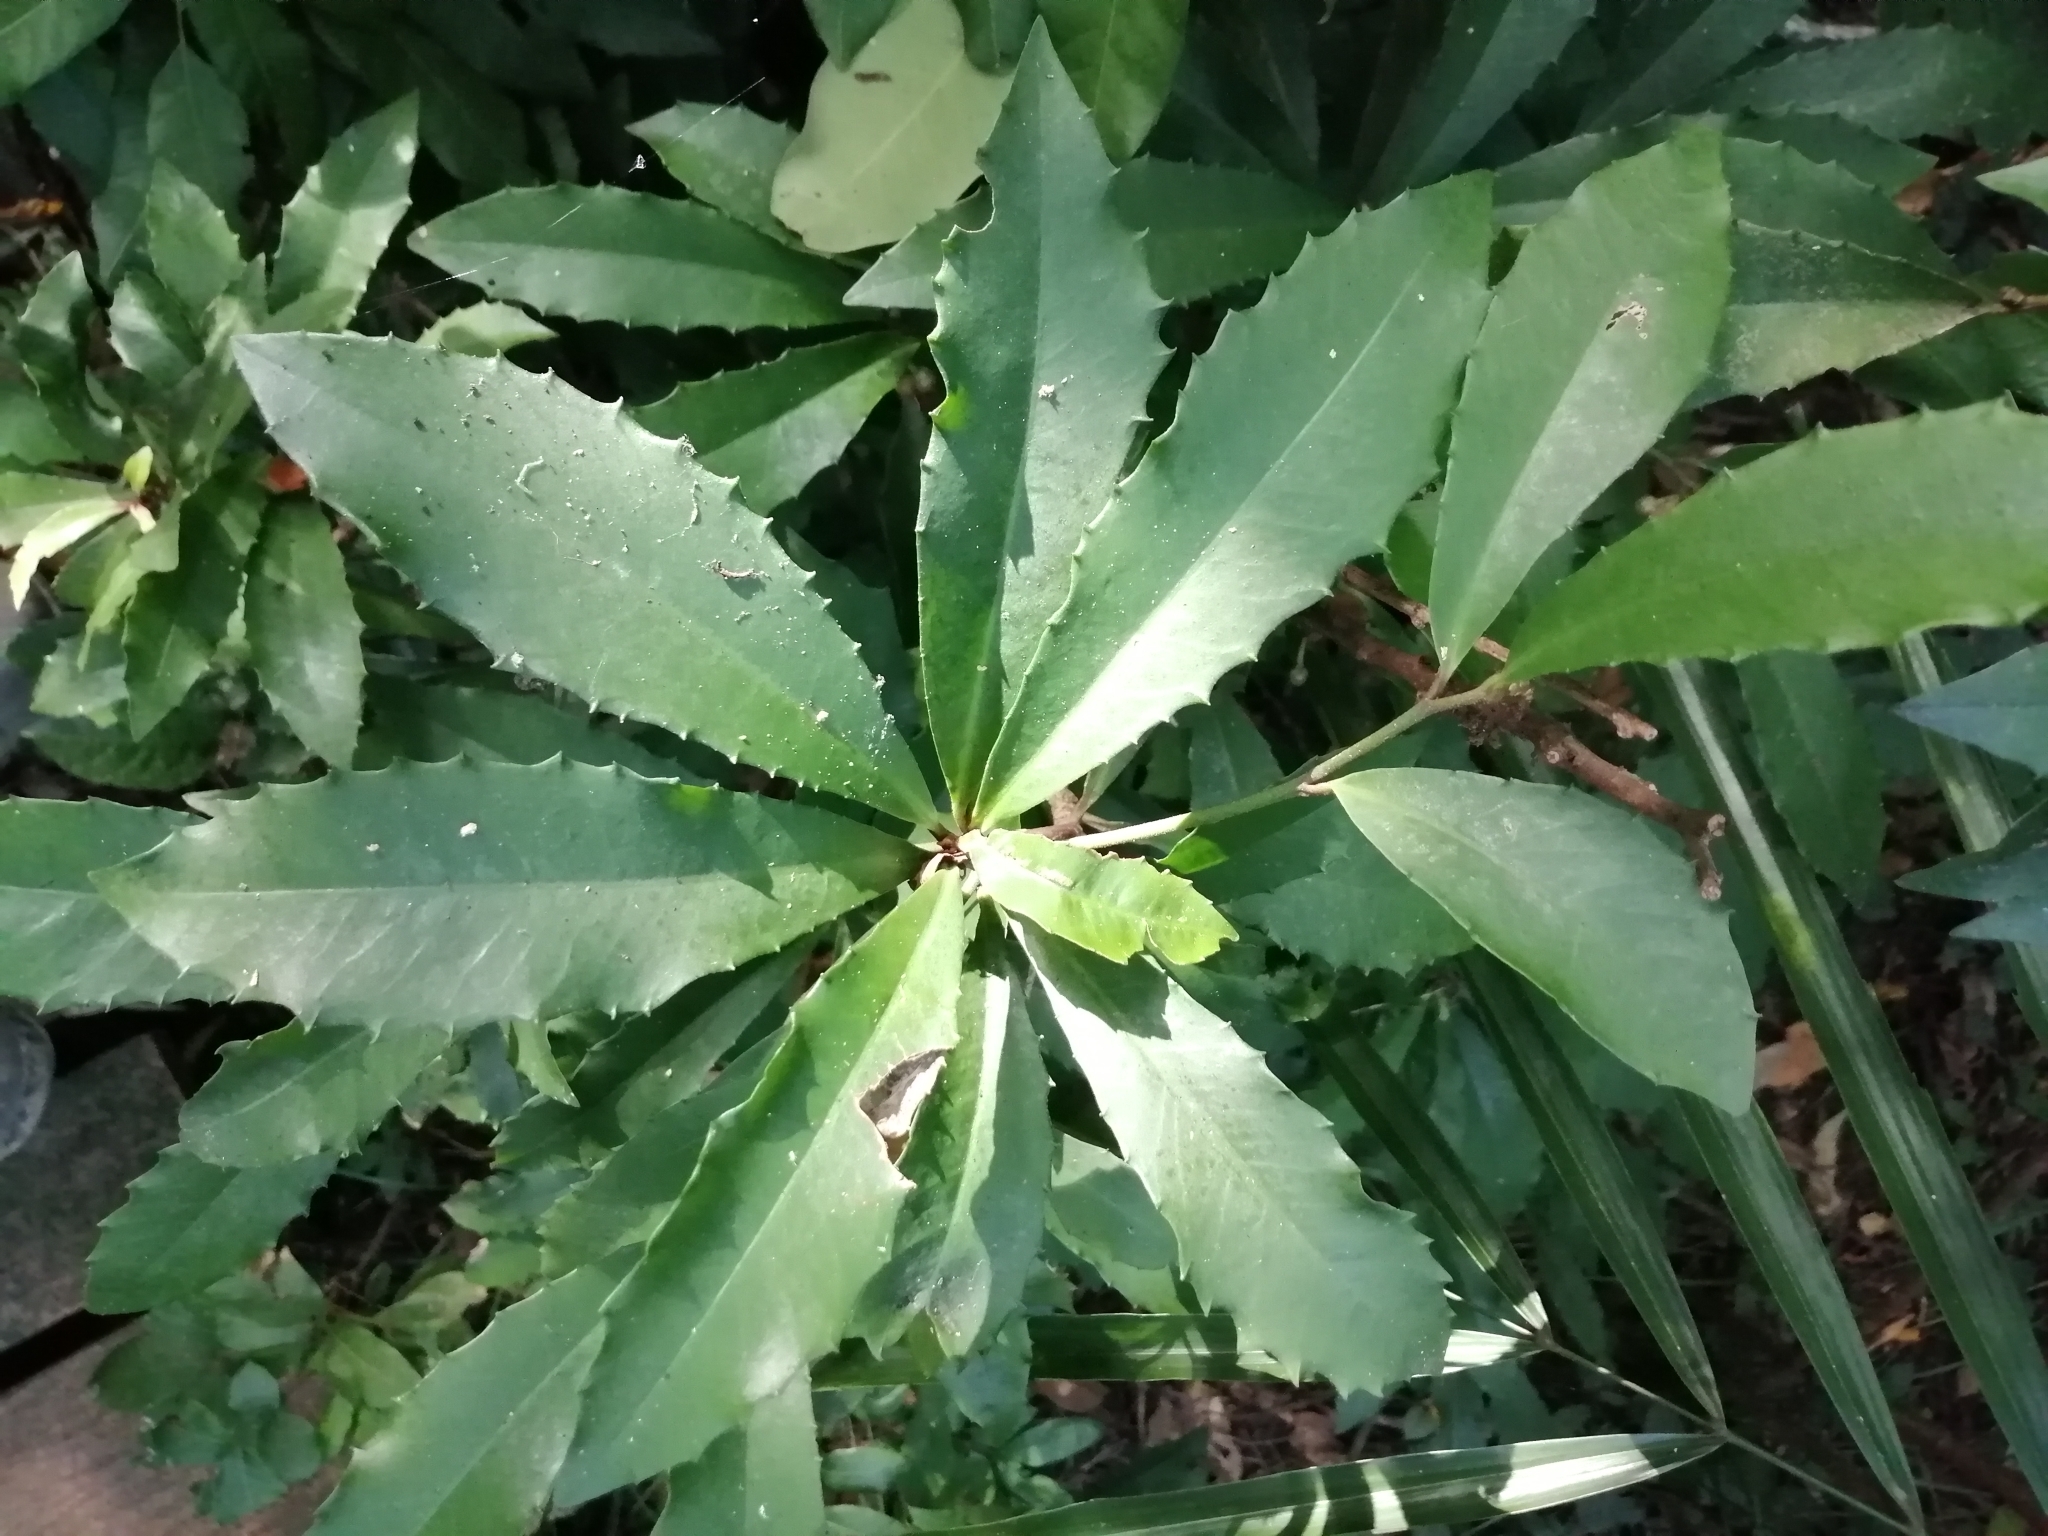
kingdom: Plantae
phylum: Tracheophyta
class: Magnoliopsida
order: Ericales
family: Primulaceae
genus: Ardisia
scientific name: Ardisia cornudentata
